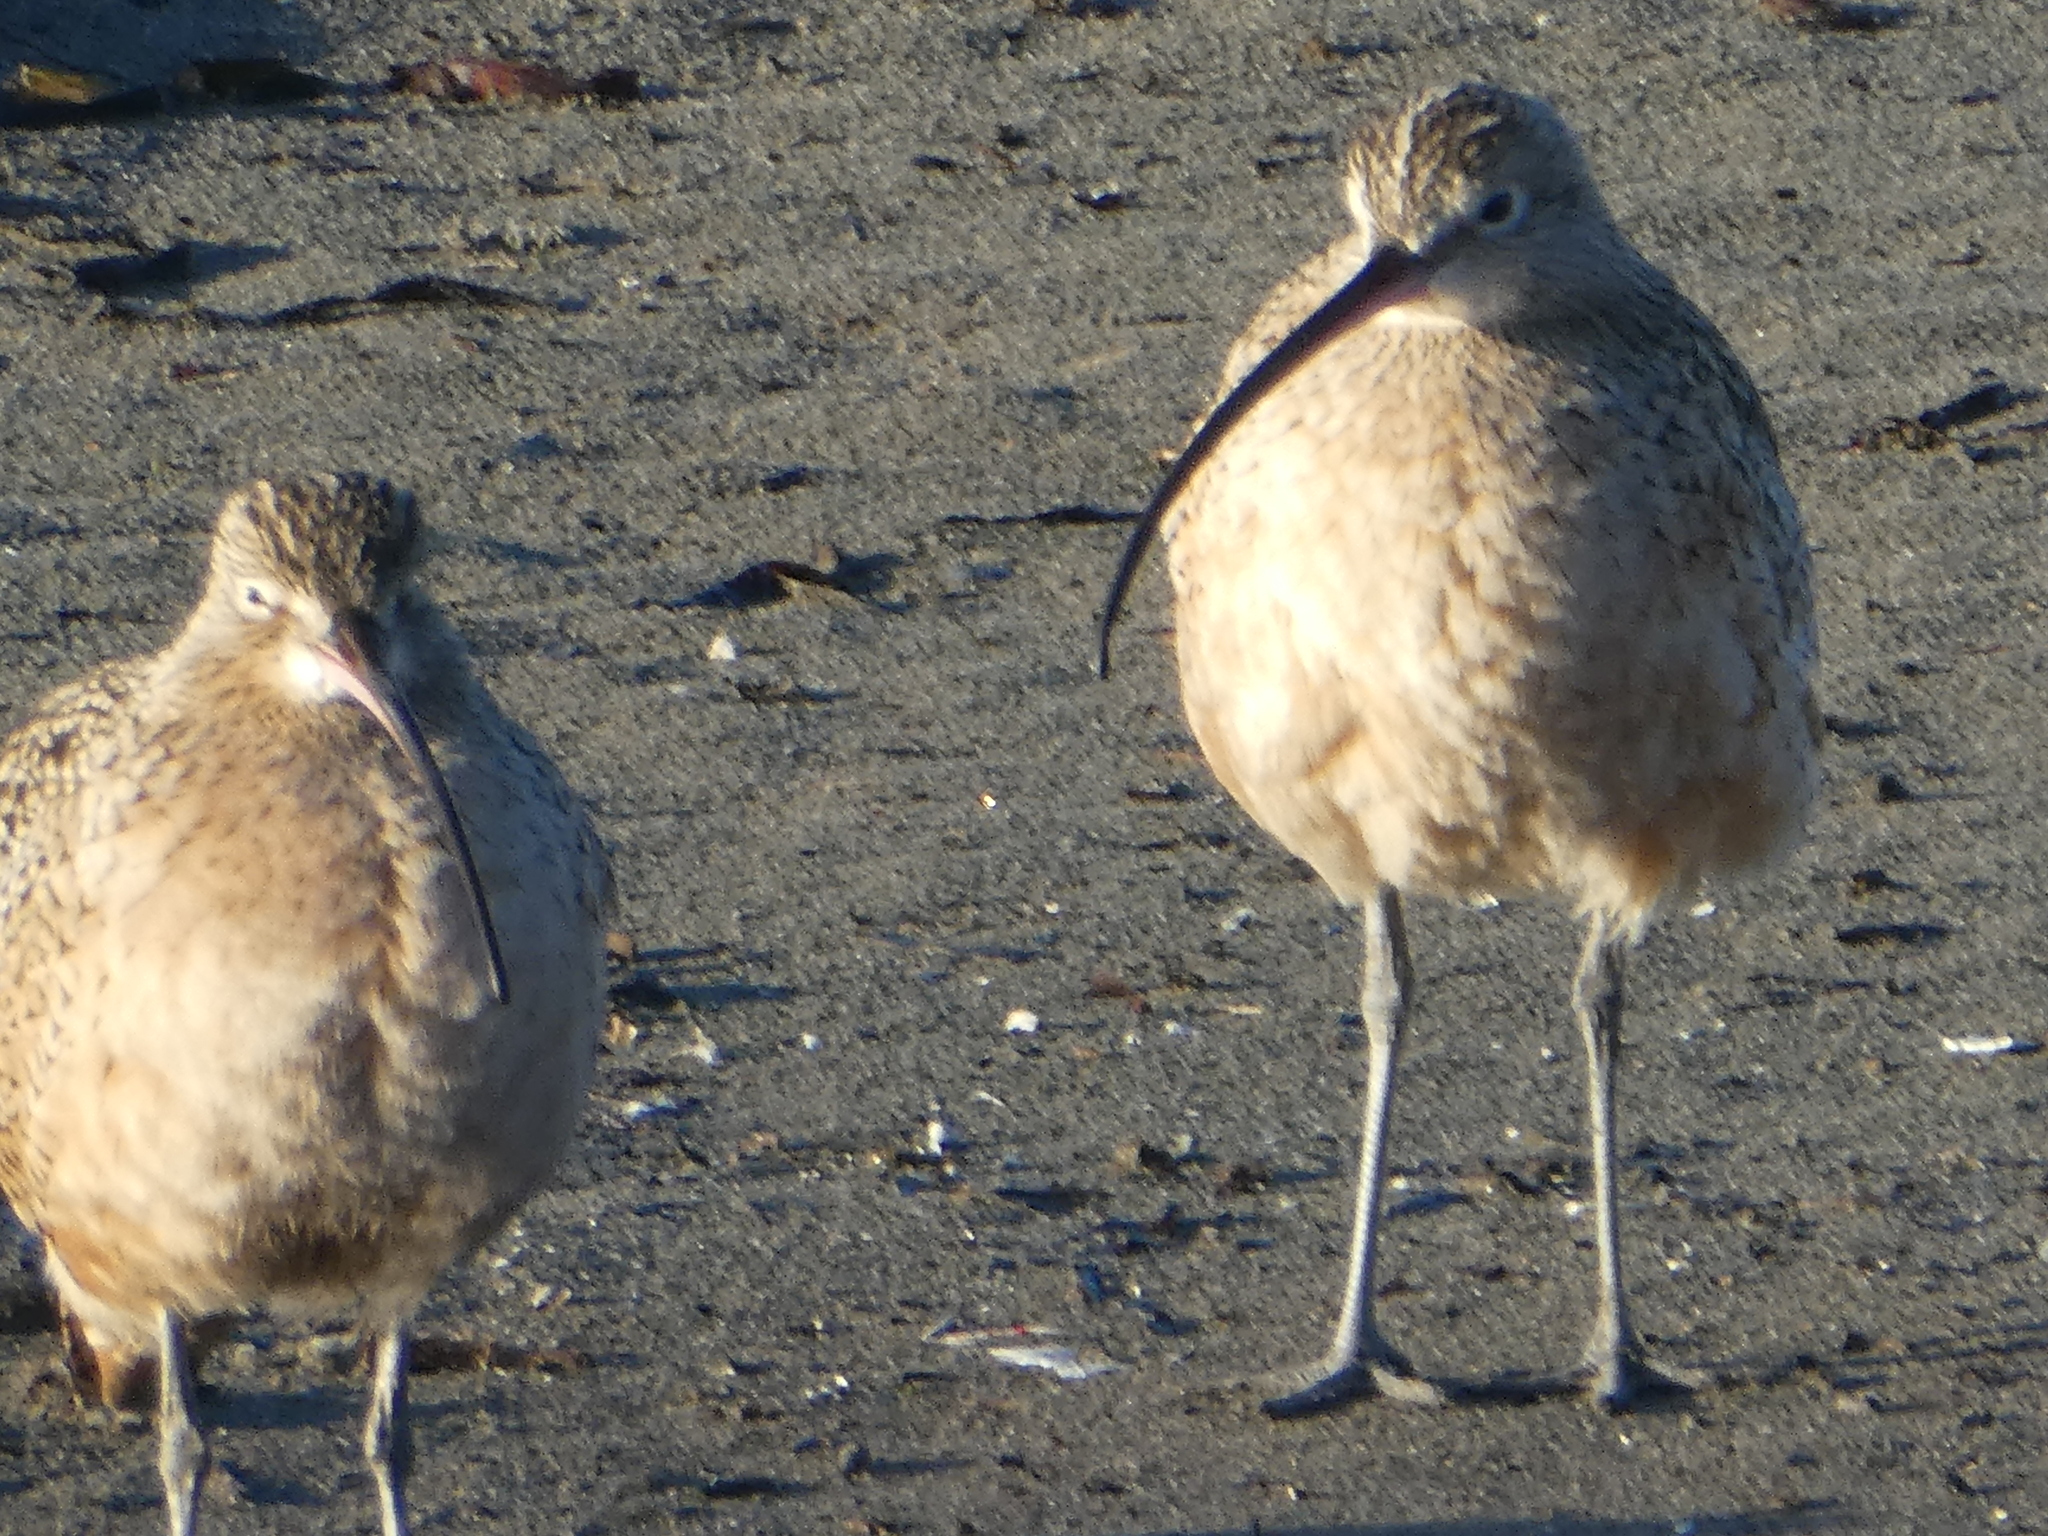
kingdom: Animalia
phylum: Chordata
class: Aves
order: Charadriiformes
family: Scolopacidae
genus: Numenius
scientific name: Numenius americanus
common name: Long-billed curlew
